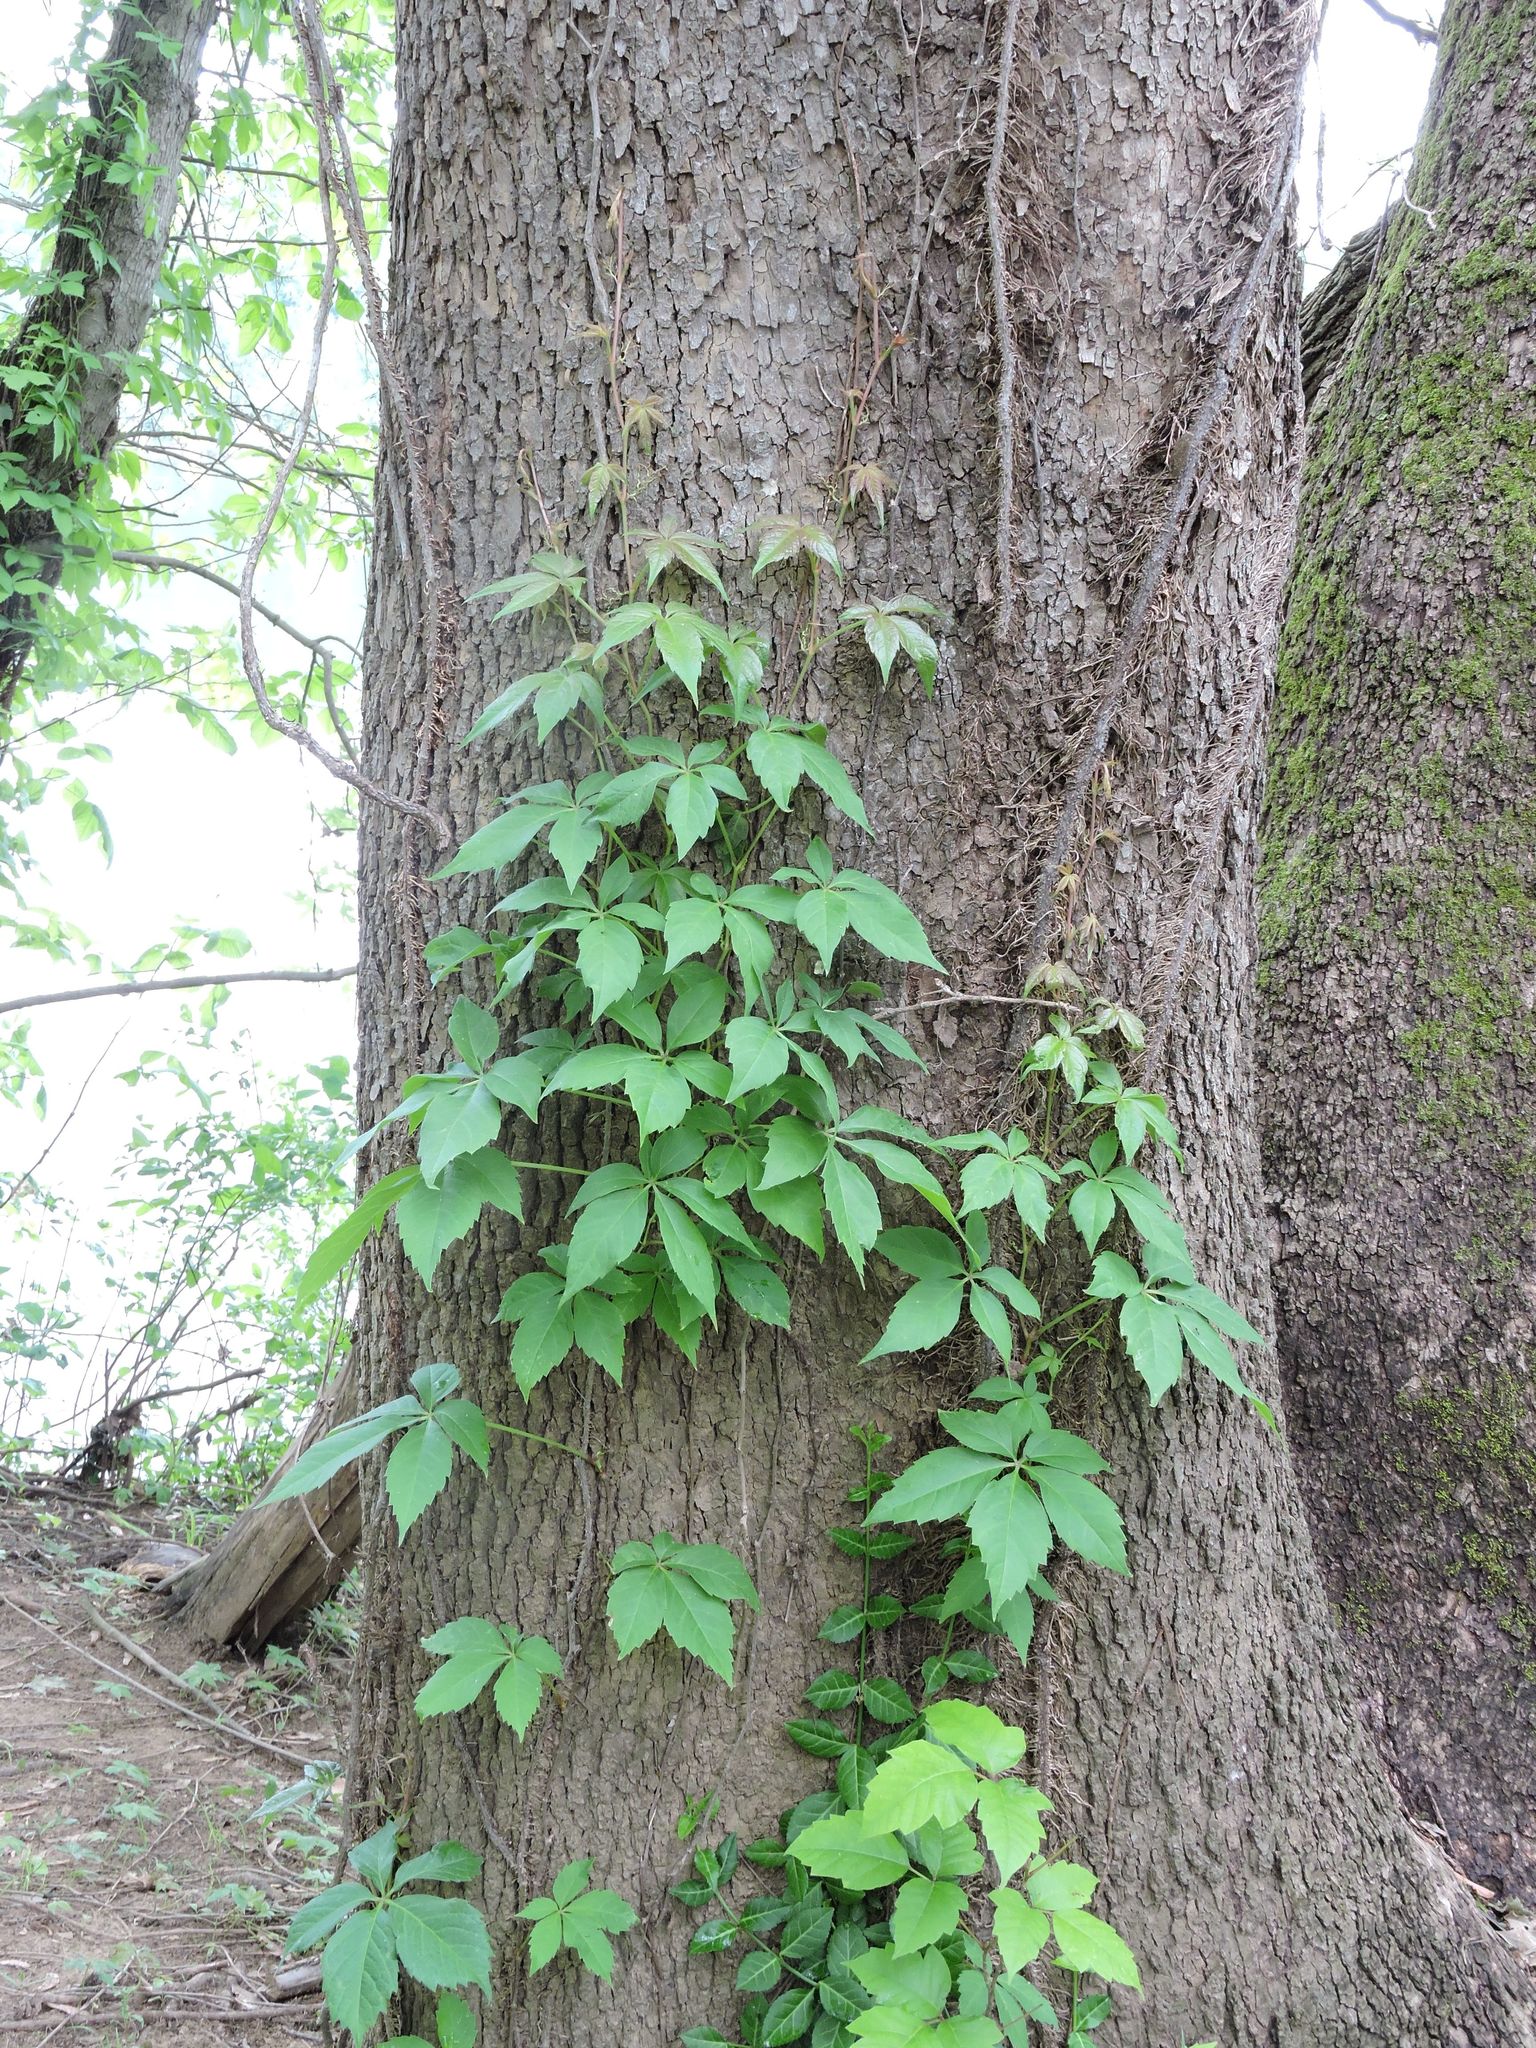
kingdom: Plantae
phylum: Tracheophyta
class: Magnoliopsida
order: Vitales
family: Vitaceae
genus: Parthenocissus
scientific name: Parthenocissus quinquefolia
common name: Virginia-creeper
